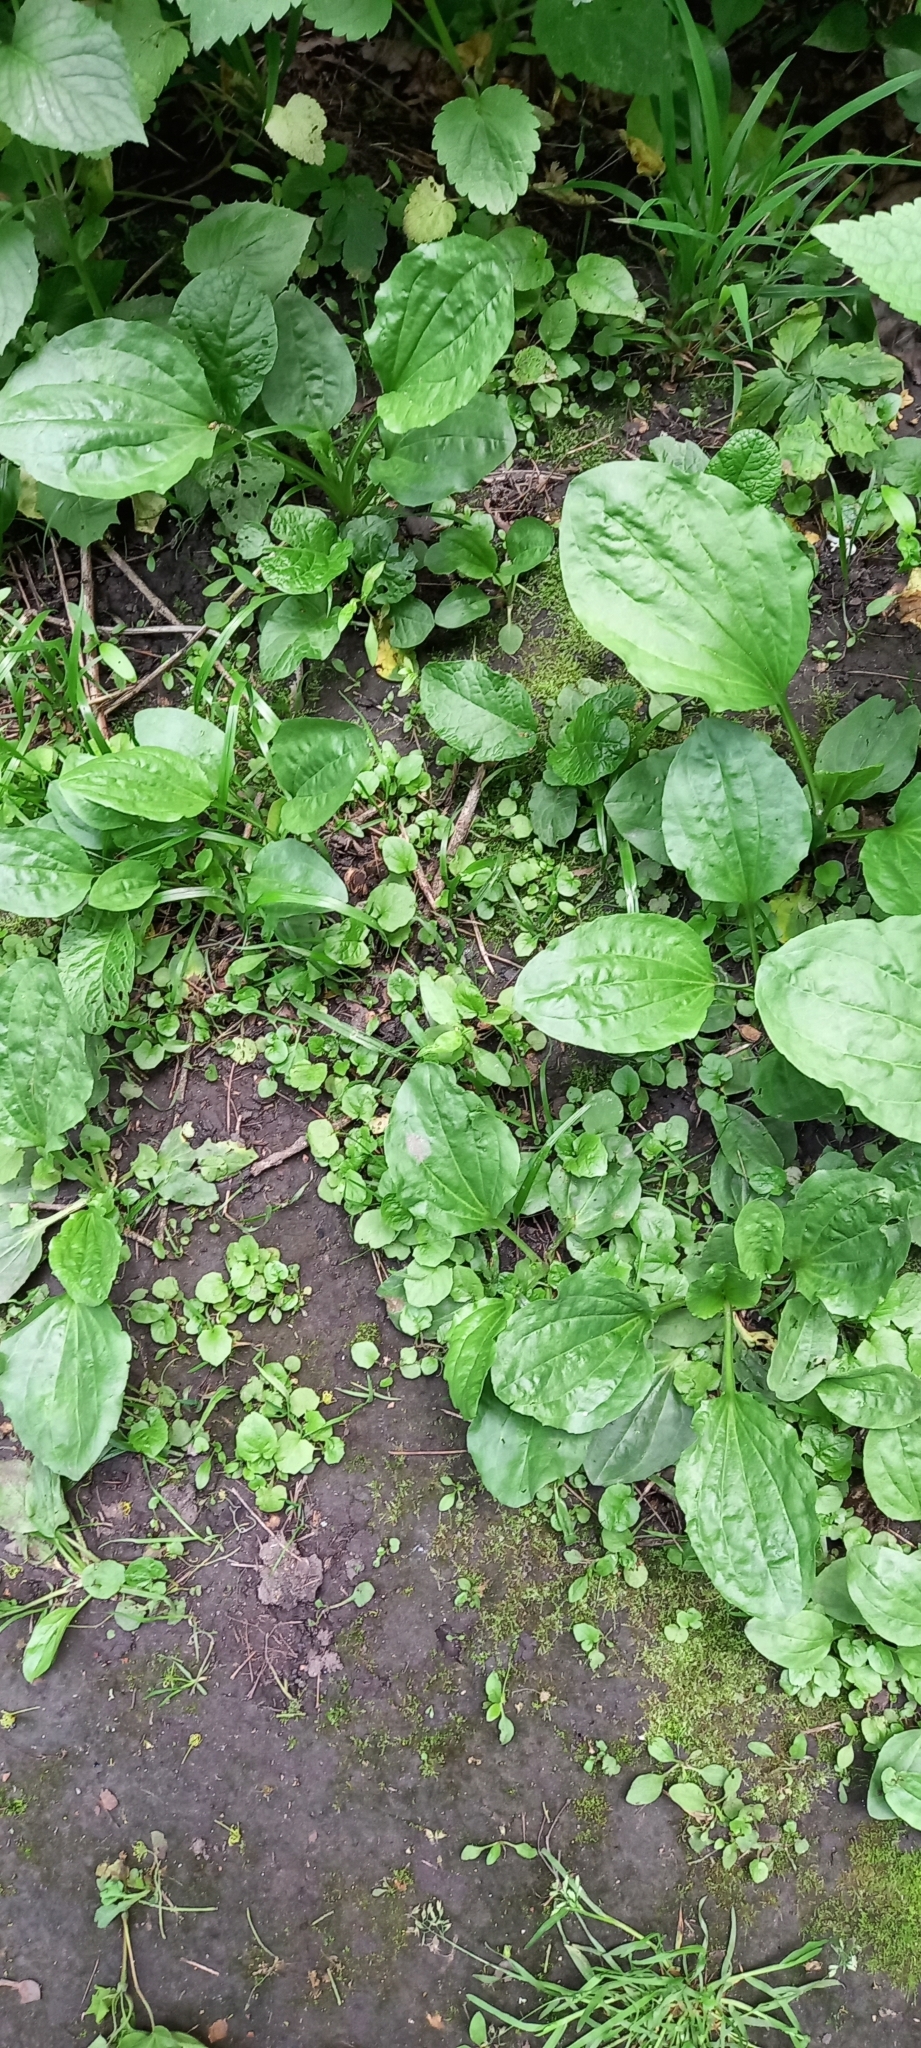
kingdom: Plantae
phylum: Tracheophyta
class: Magnoliopsida
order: Lamiales
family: Plantaginaceae
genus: Plantago
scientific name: Plantago major
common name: Common plantain
